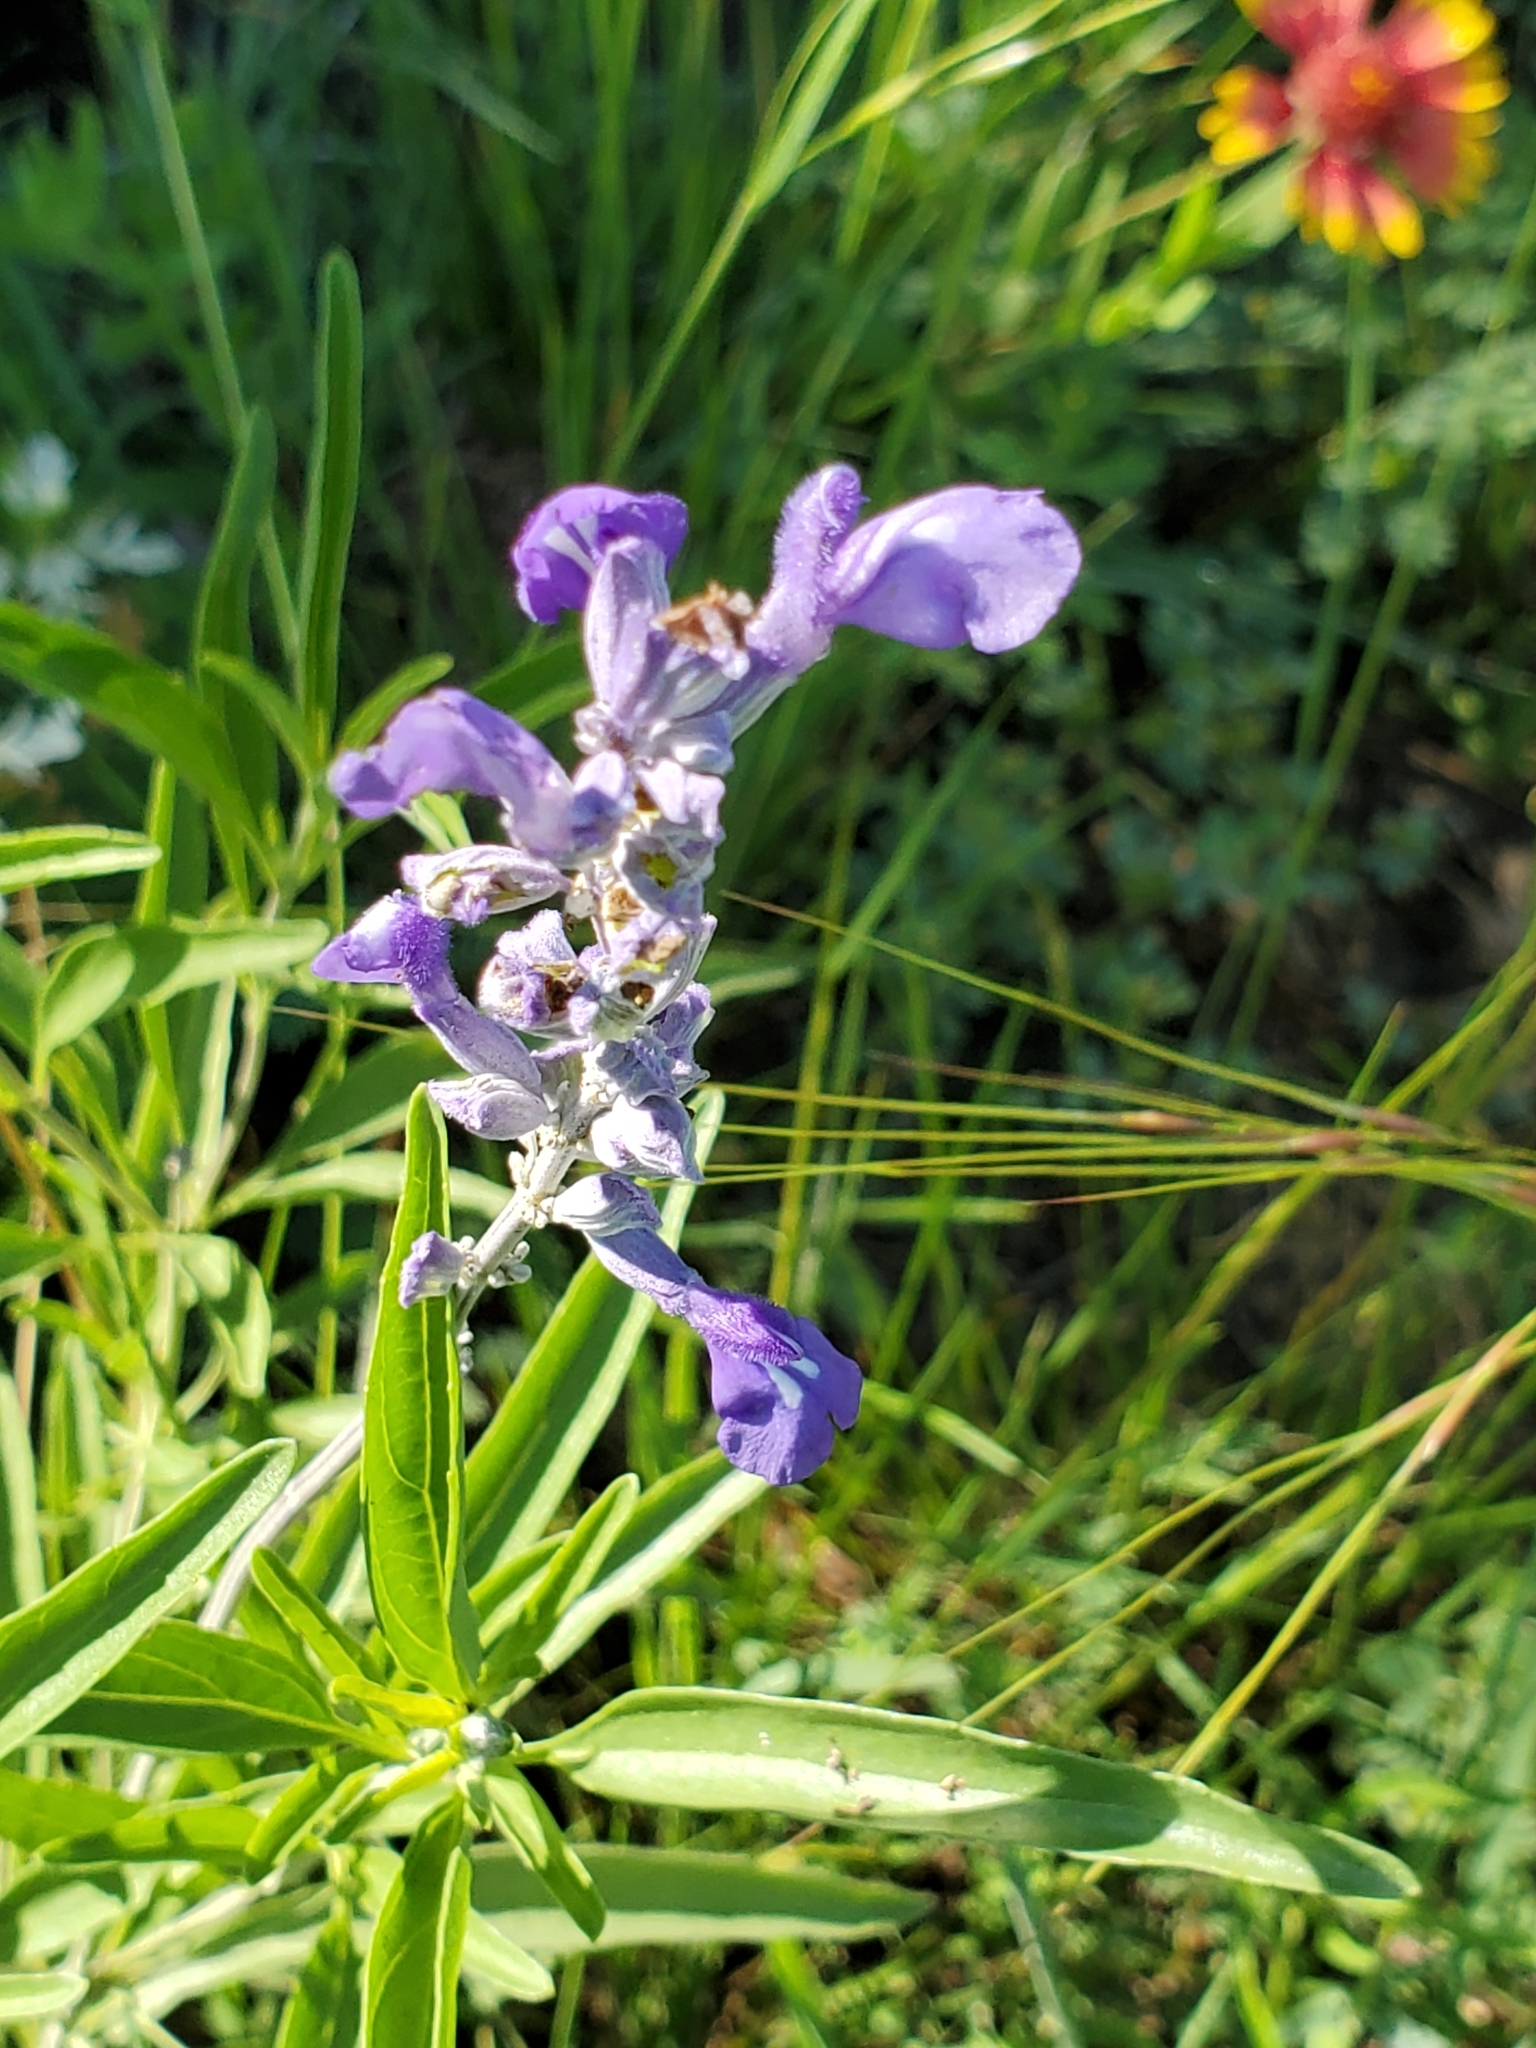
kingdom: Plantae
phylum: Tracheophyta
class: Magnoliopsida
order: Lamiales
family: Lamiaceae
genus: Salvia
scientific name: Salvia farinacea
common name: Mealy sage
